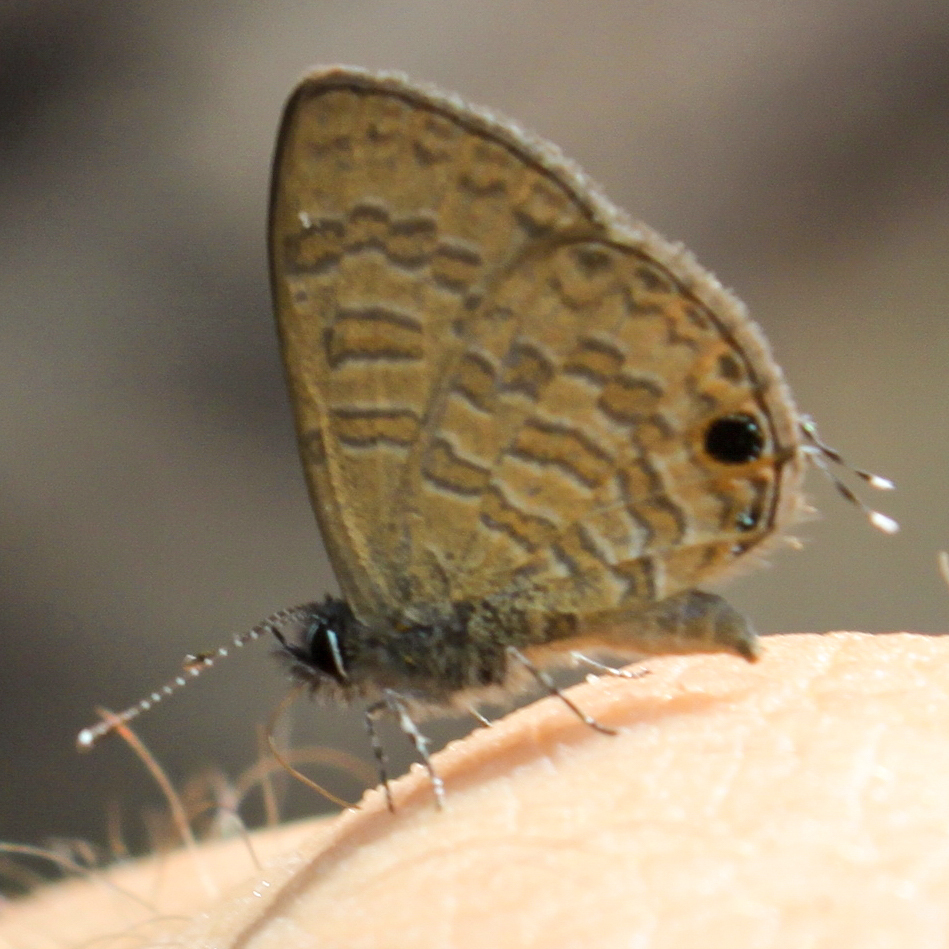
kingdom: Animalia
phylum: Arthropoda
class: Insecta
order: Lepidoptera
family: Lycaenidae
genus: Prosotas
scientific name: Prosotas nora
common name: Common line blue
